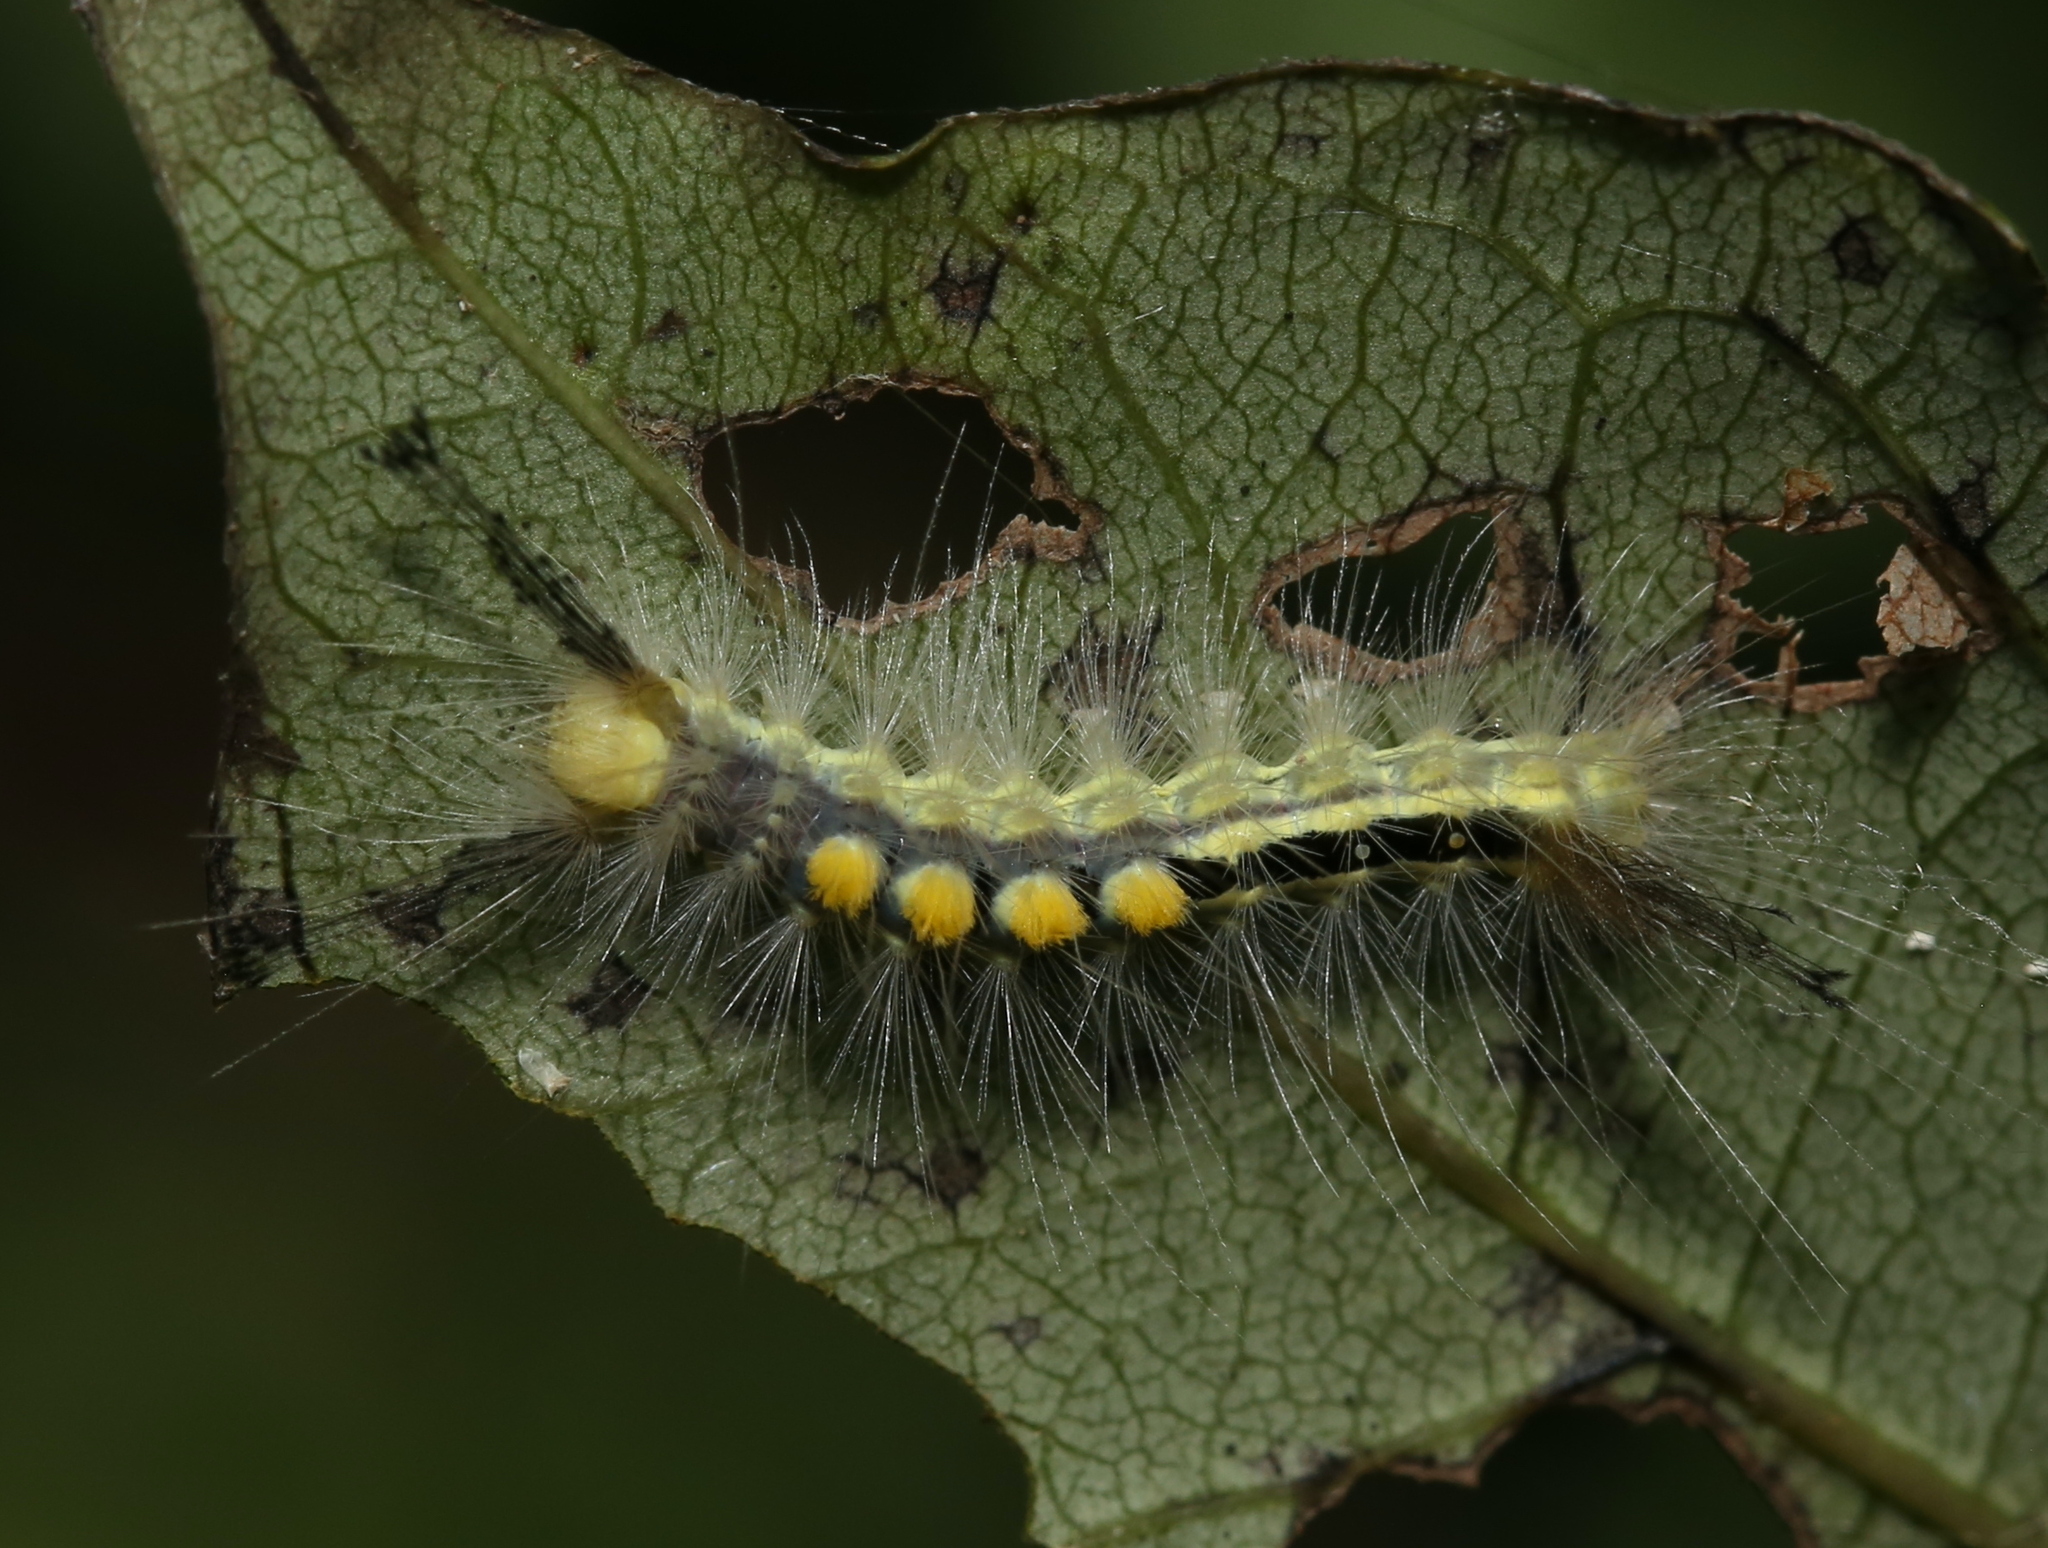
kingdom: Animalia
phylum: Arthropoda
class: Insecta
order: Lepidoptera
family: Erebidae
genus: Orgyia
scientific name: Orgyia definita
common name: Definite tussock moth
